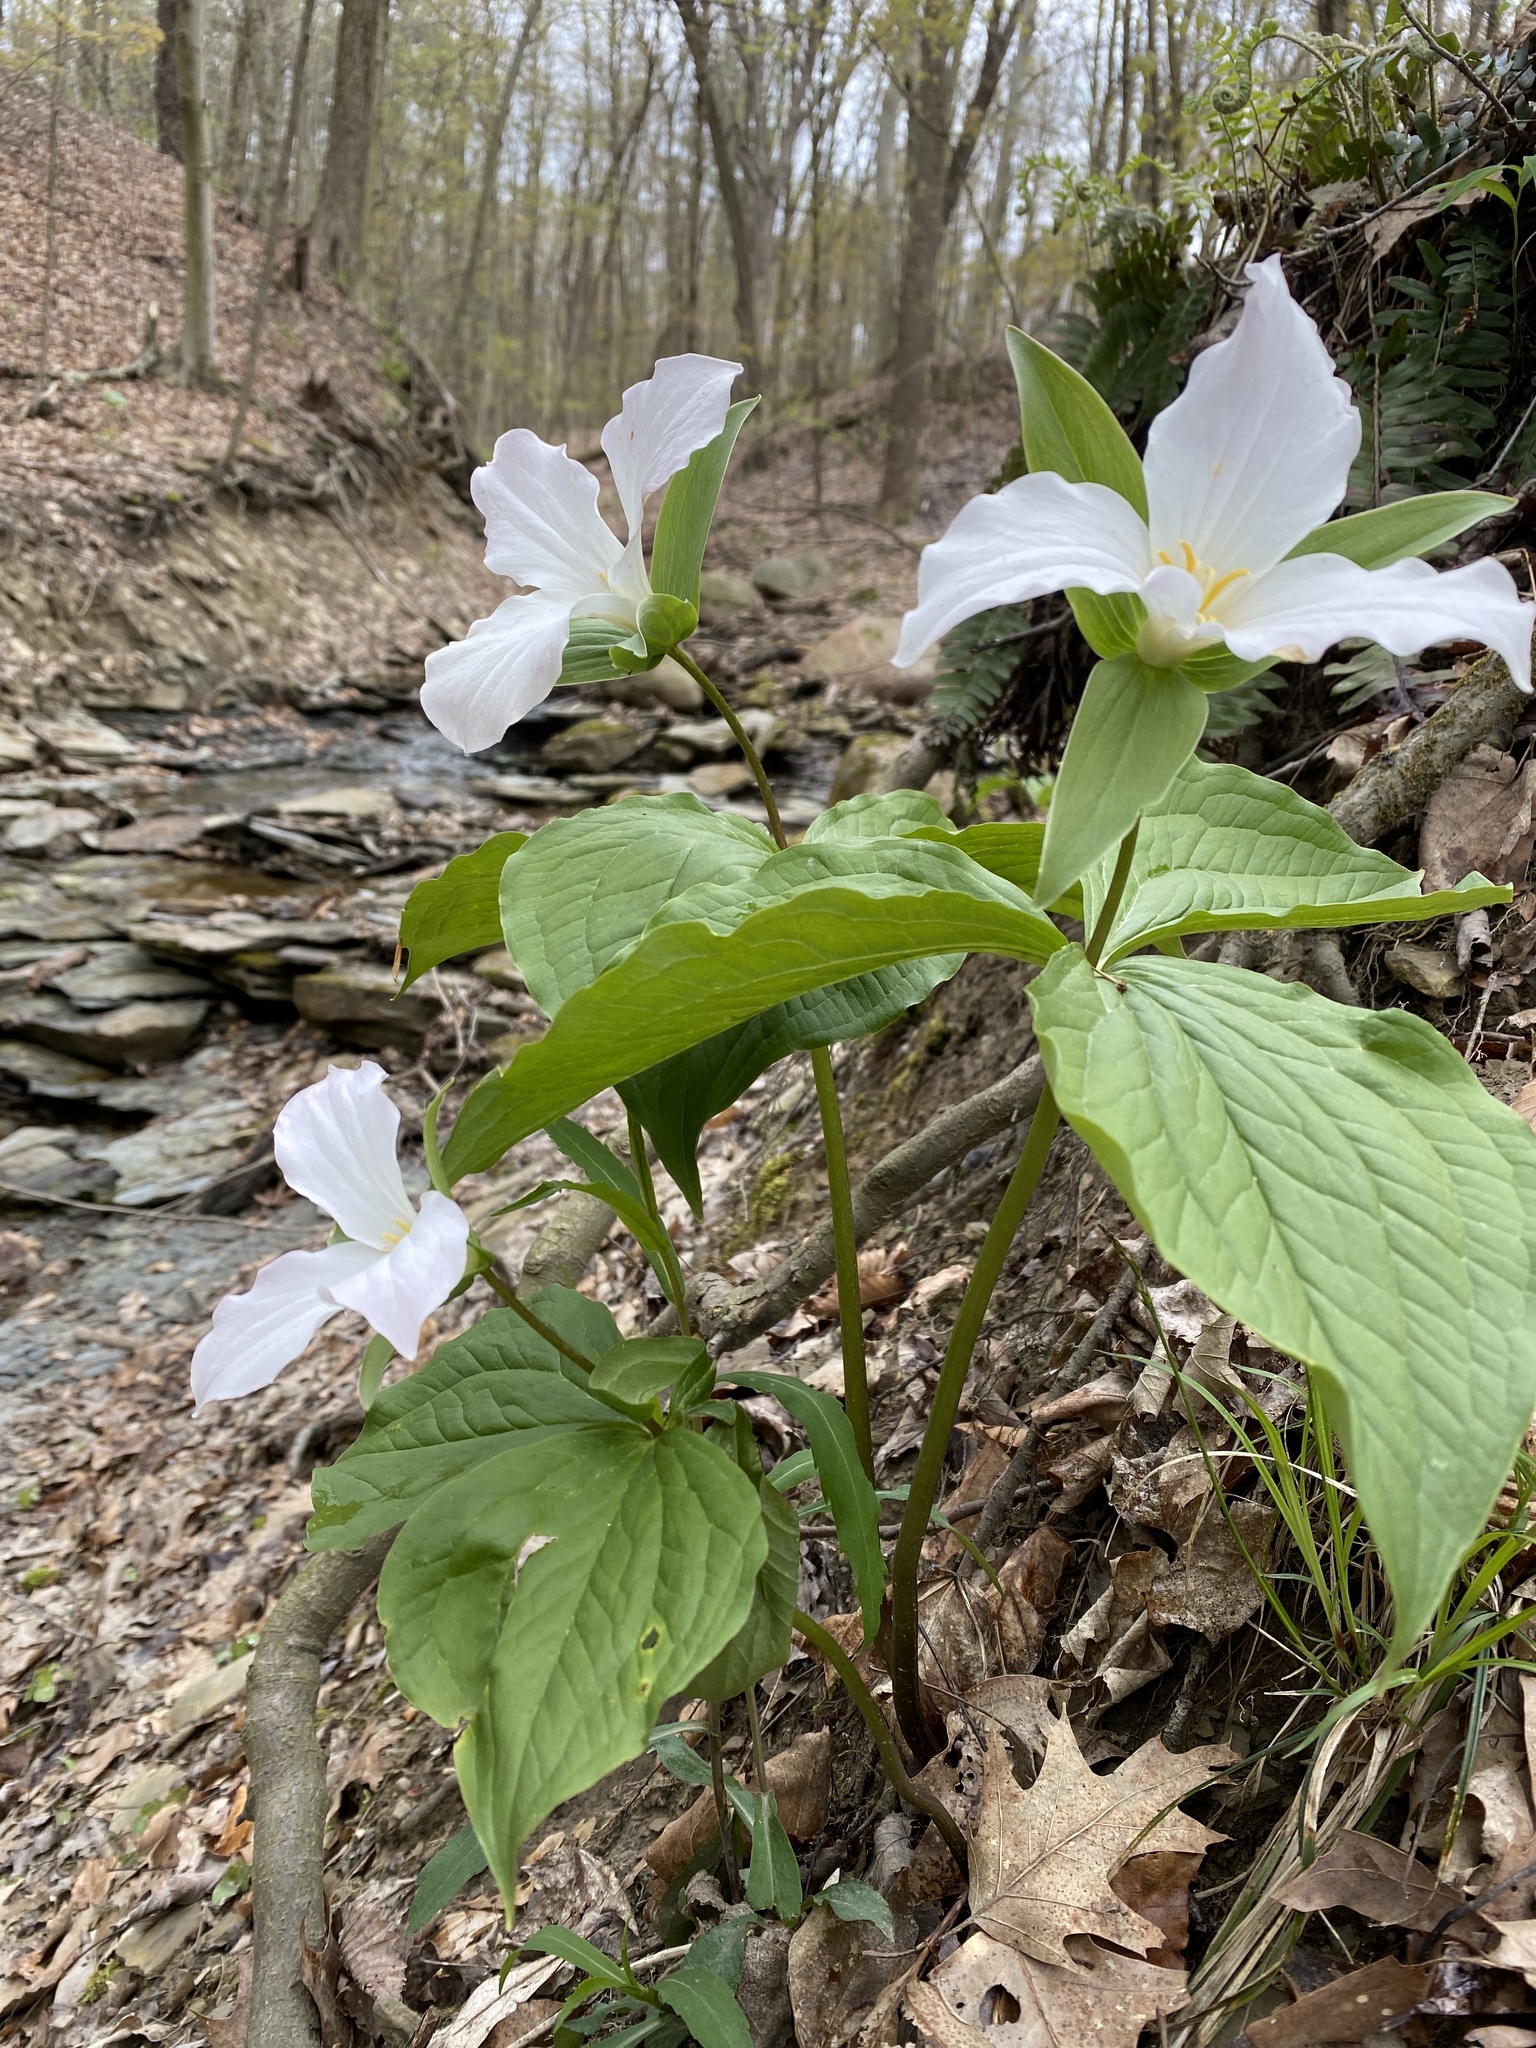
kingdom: Plantae
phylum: Tracheophyta
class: Liliopsida
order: Liliales
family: Melanthiaceae
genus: Trillium
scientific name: Trillium grandiflorum
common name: Great white trillium
